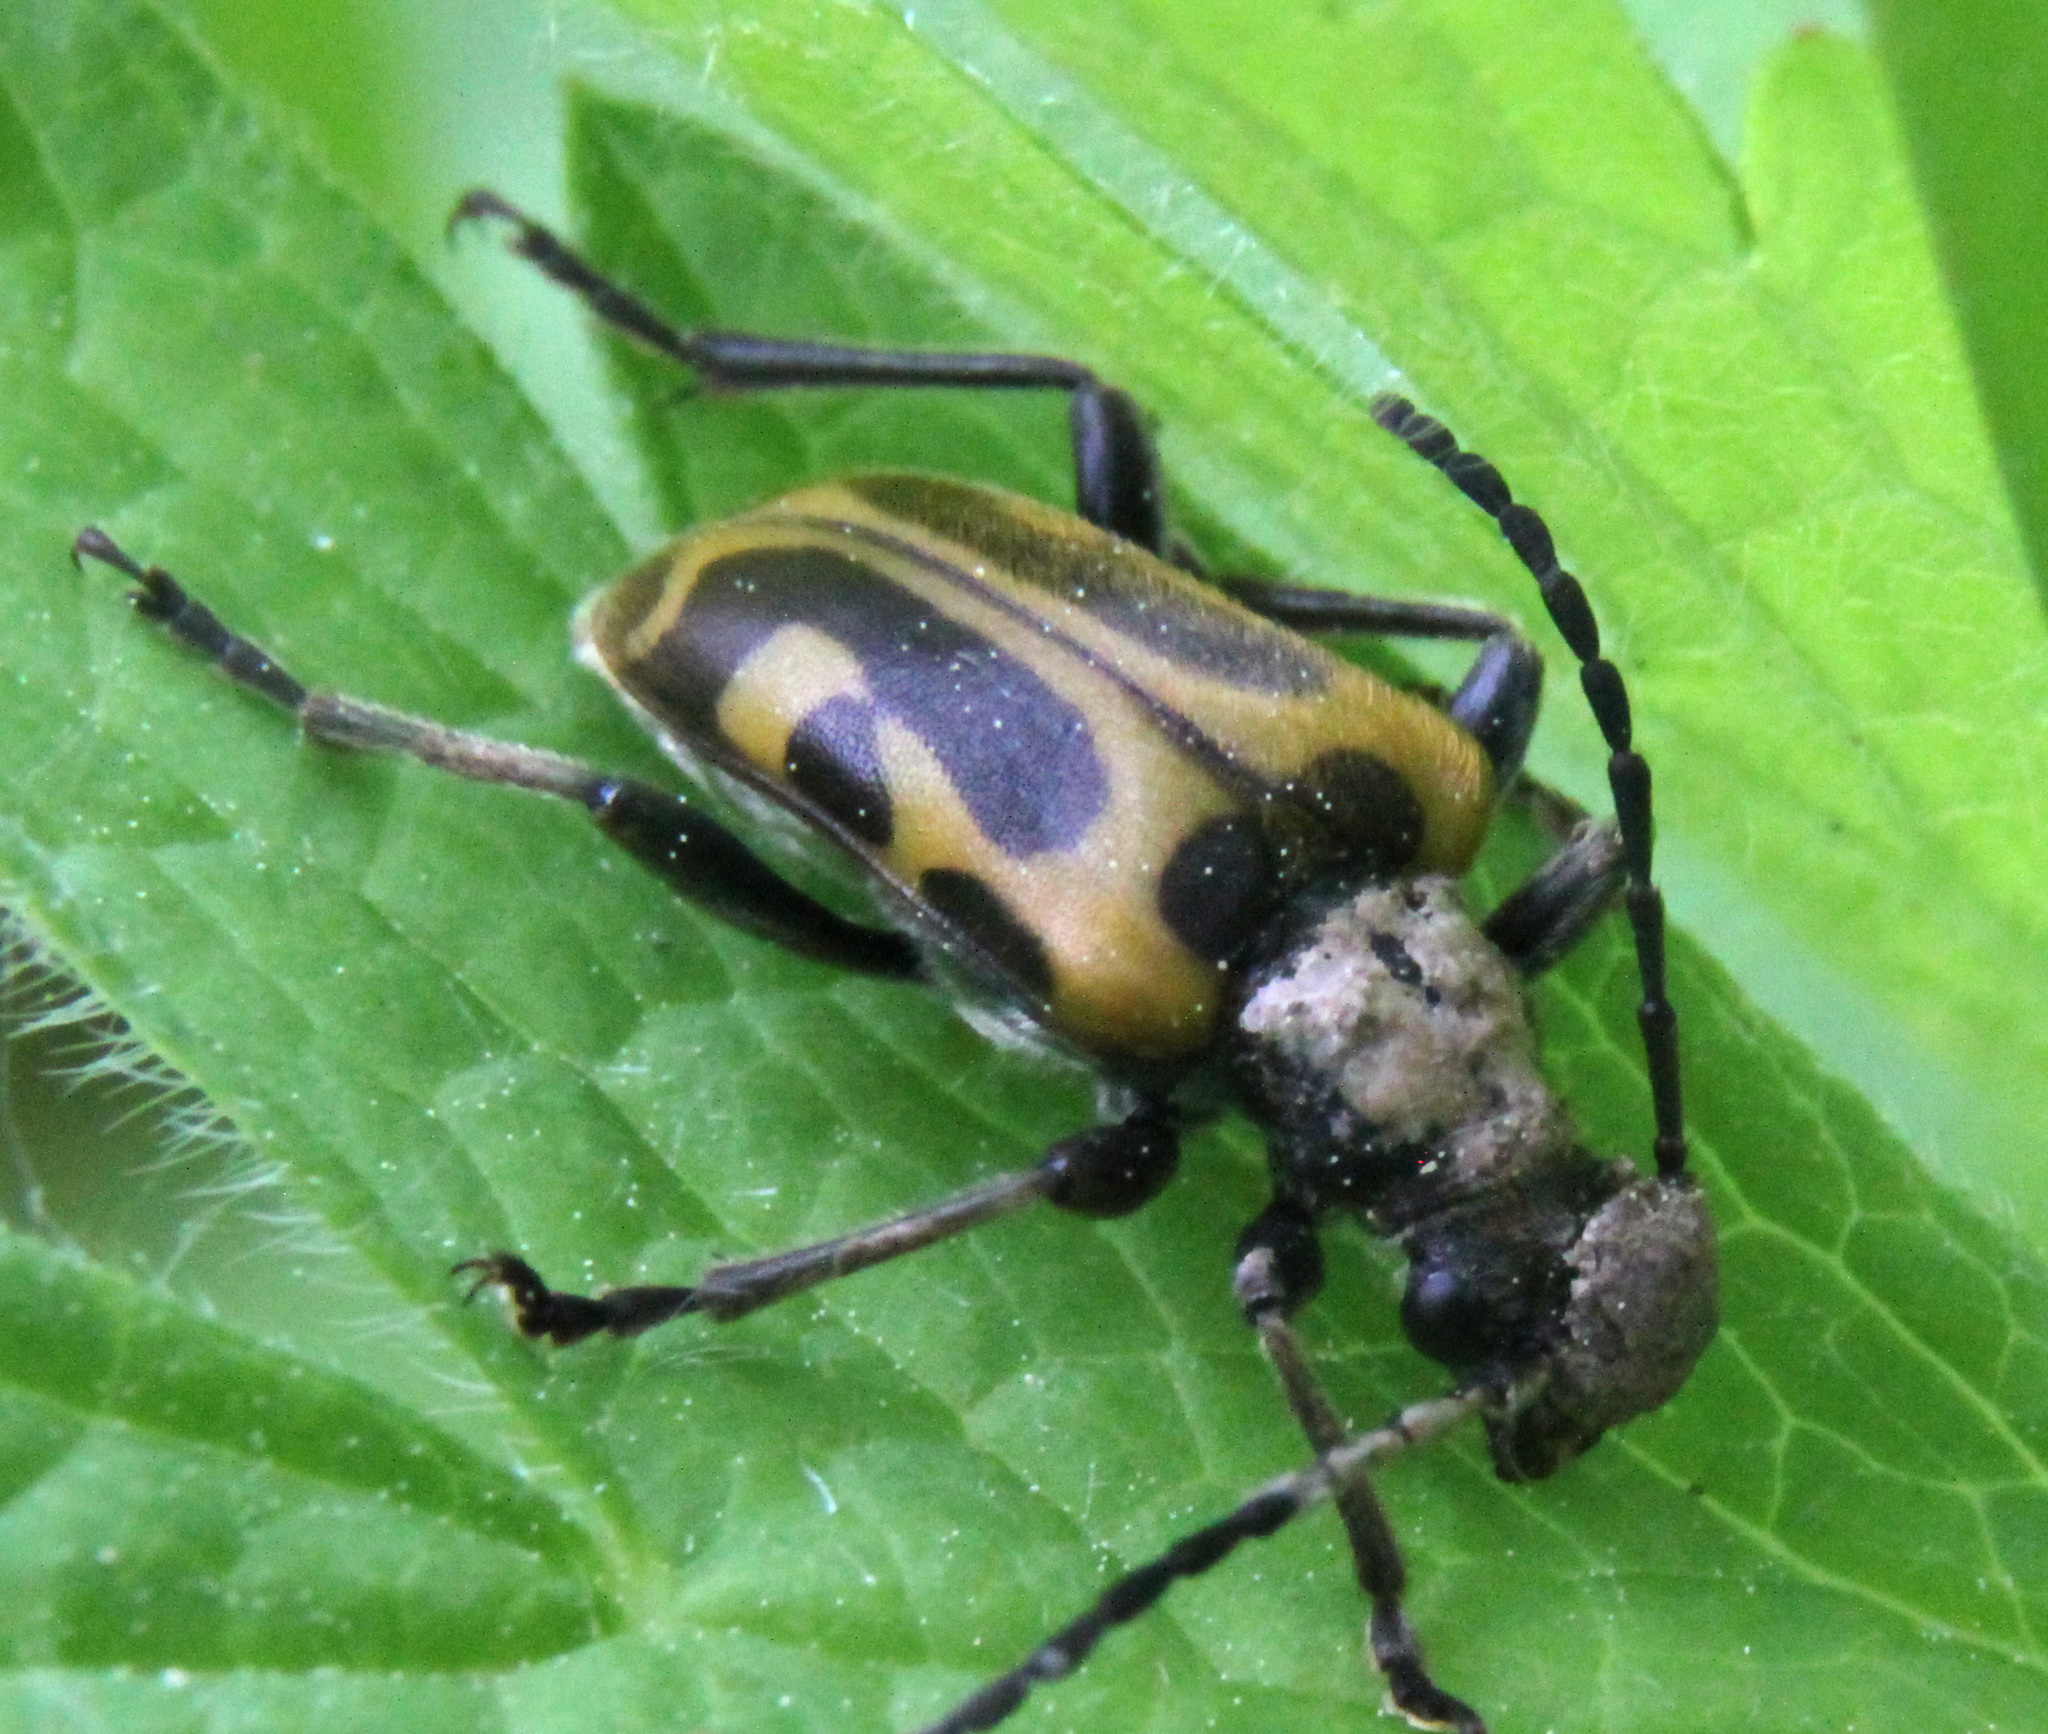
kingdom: Animalia
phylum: Arthropoda
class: Insecta
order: Coleoptera
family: Cerambycidae
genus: Brachyta
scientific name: Brachyta interrogationis
